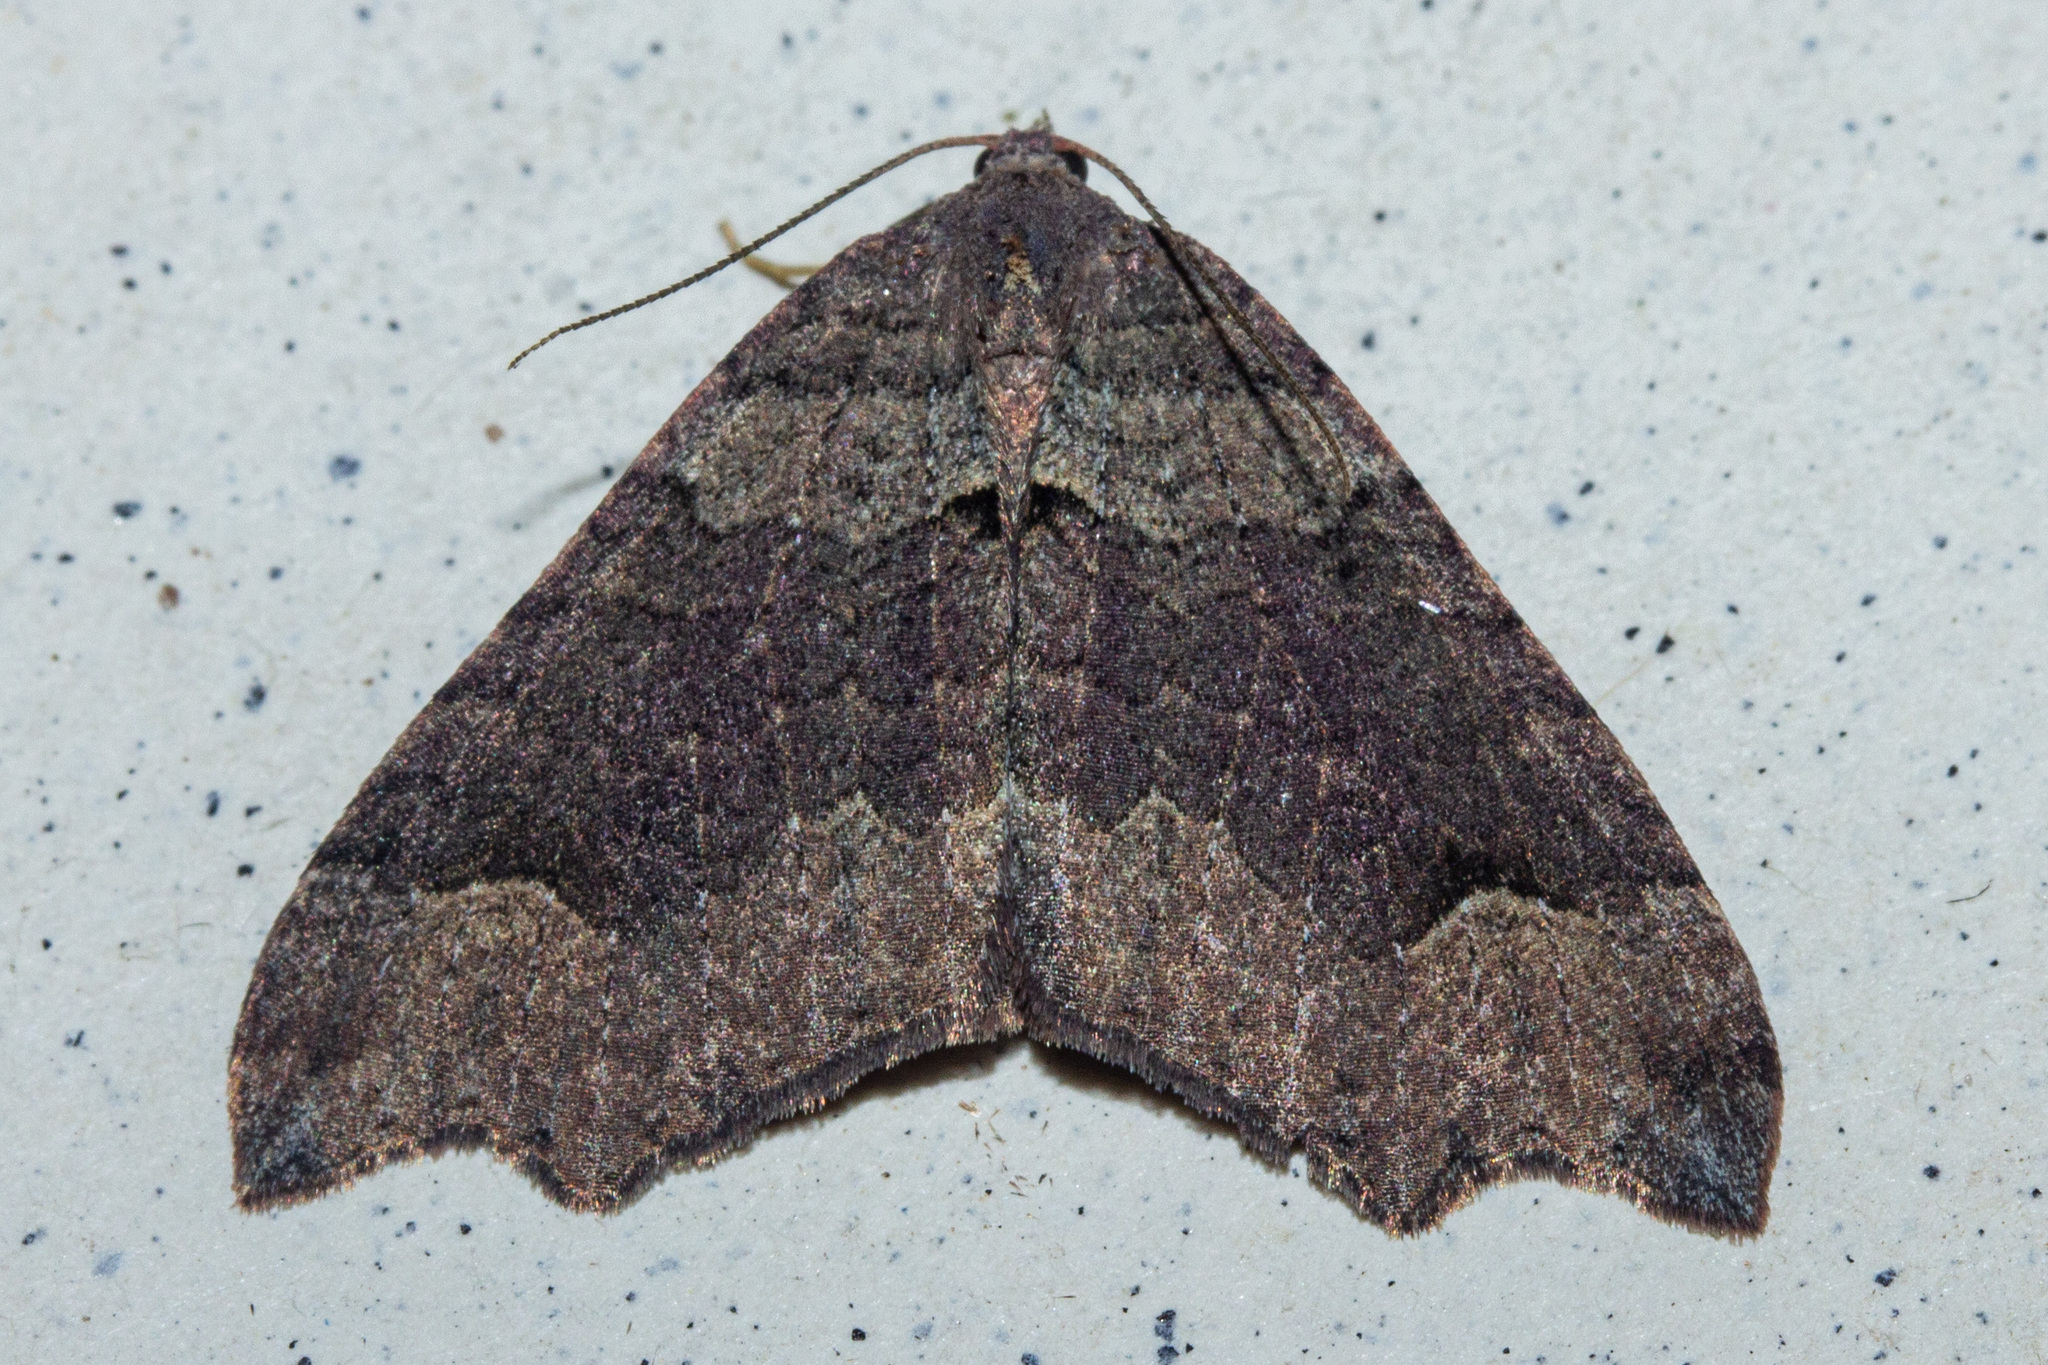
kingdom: Animalia
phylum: Arthropoda
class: Insecta
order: Lepidoptera
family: Geometridae
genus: Austrocidaria
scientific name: Austrocidaria parora
